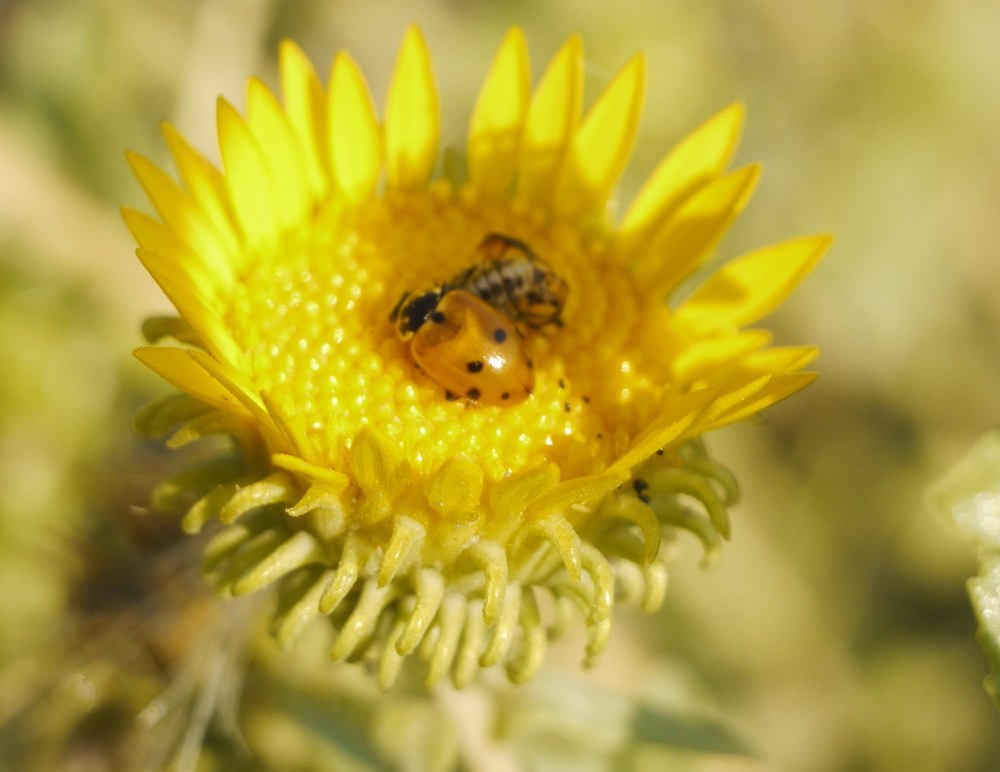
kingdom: Animalia
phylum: Arthropoda
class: Insecta
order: Coleoptera
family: Coccinellidae
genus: Hippodamia
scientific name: Hippodamia variegata
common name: Ladybird beetle
